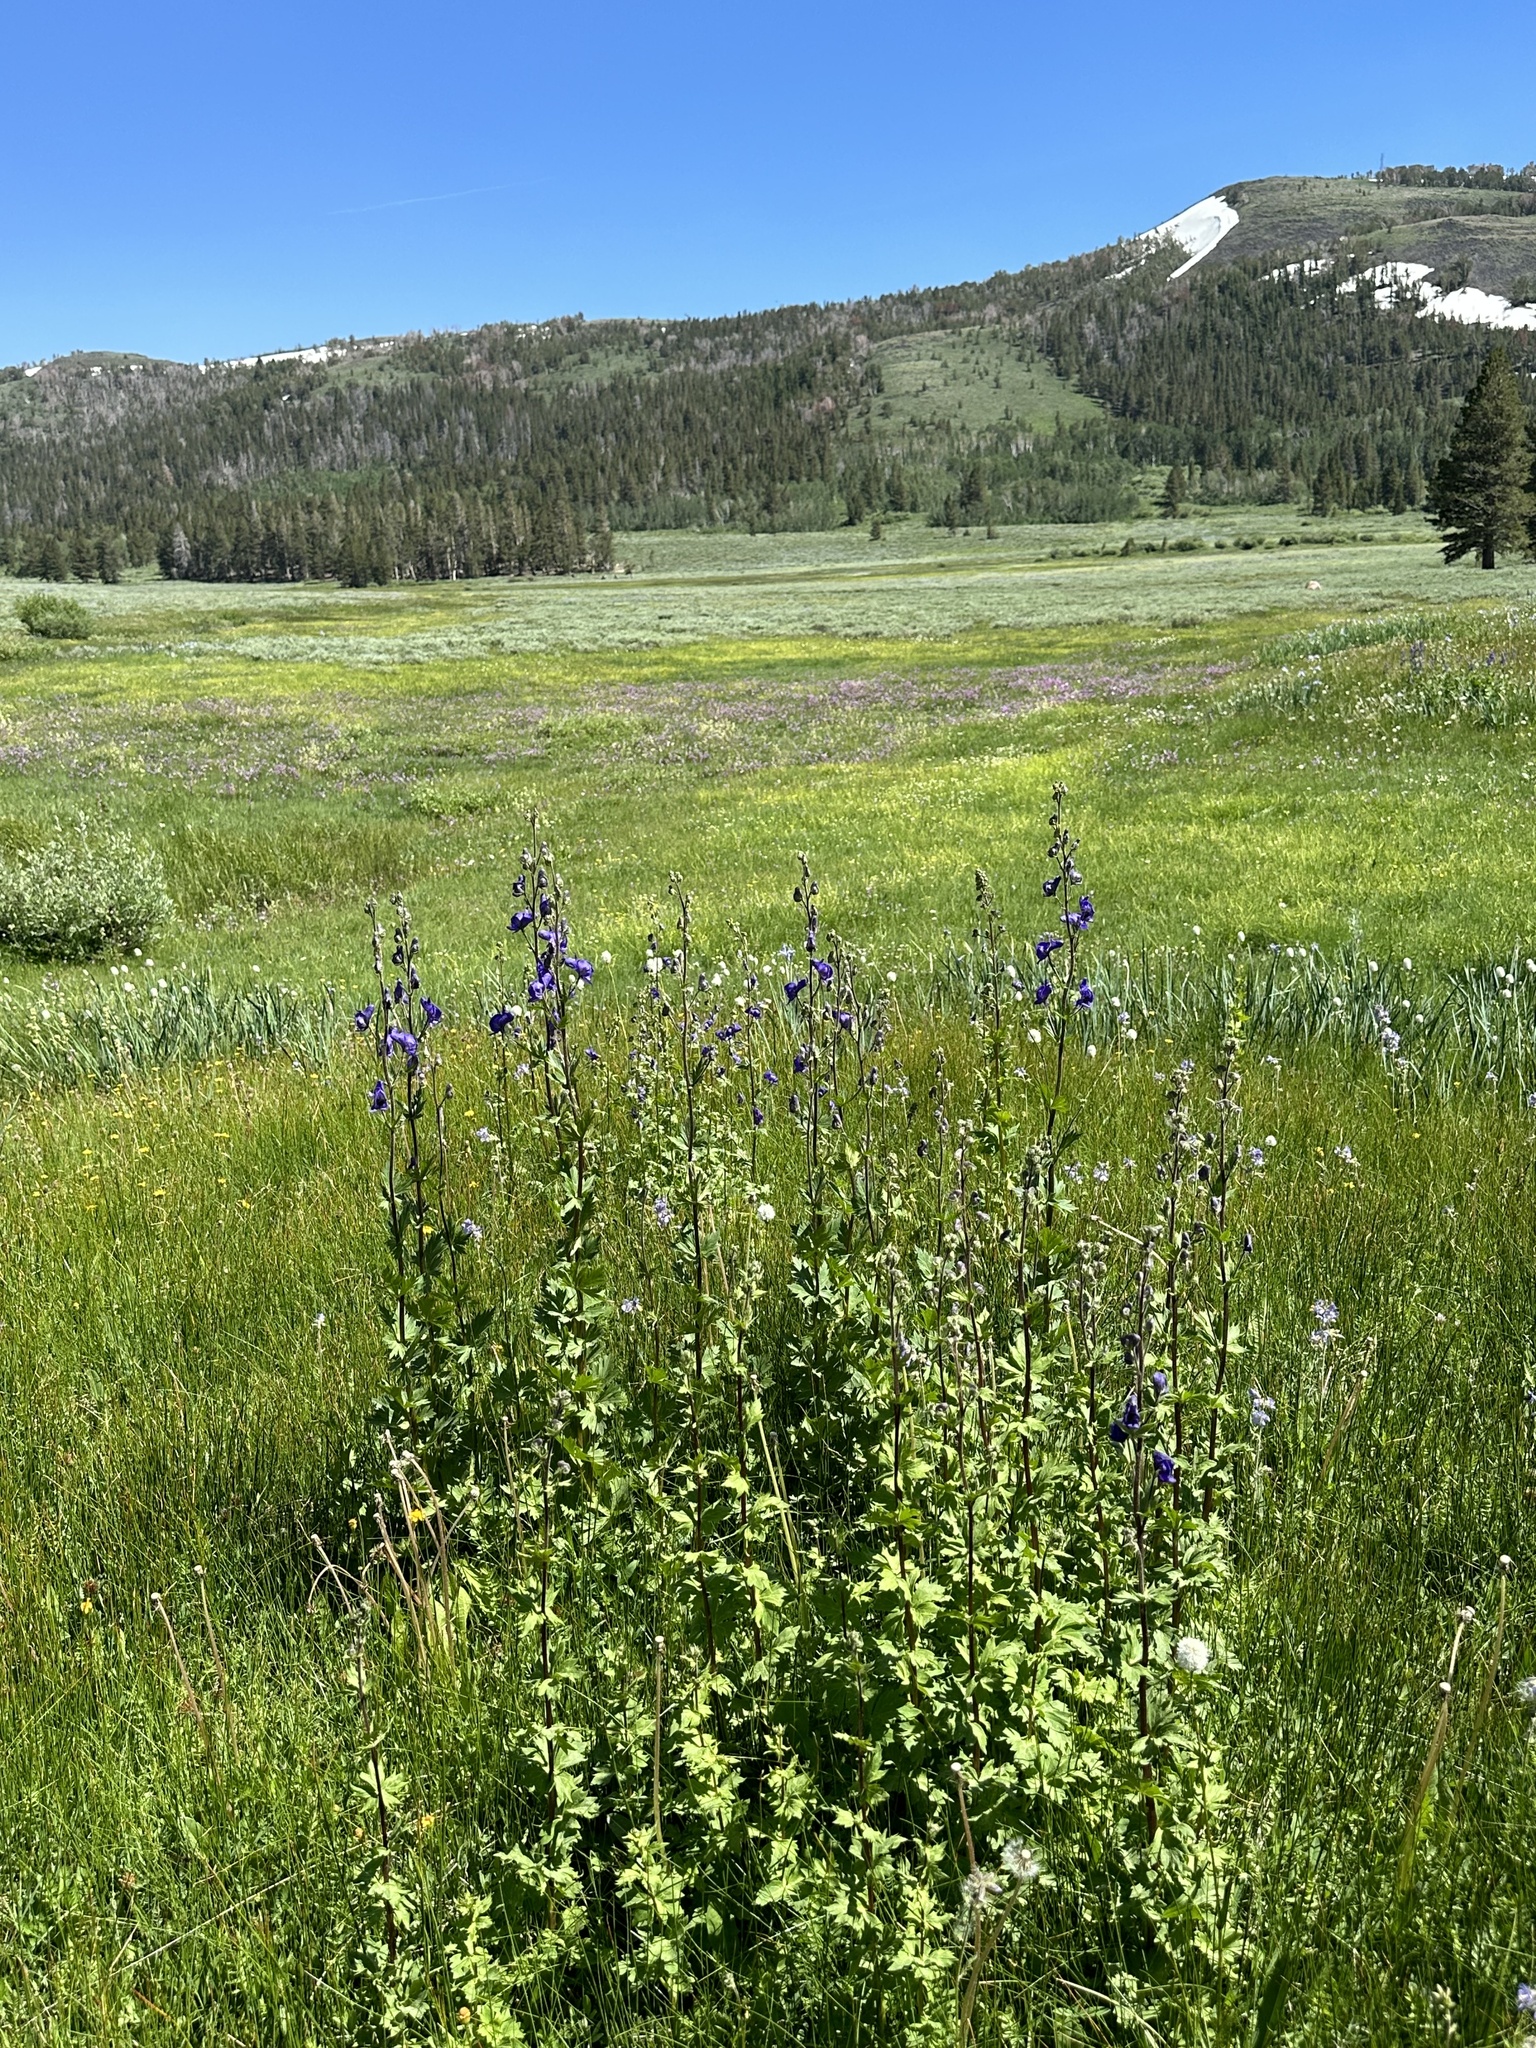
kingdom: Plantae
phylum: Tracheophyta
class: Magnoliopsida
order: Ranunculales
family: Ranunculaceae
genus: Aconitum
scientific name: Aconitum columbianum
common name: Columbia aconite
